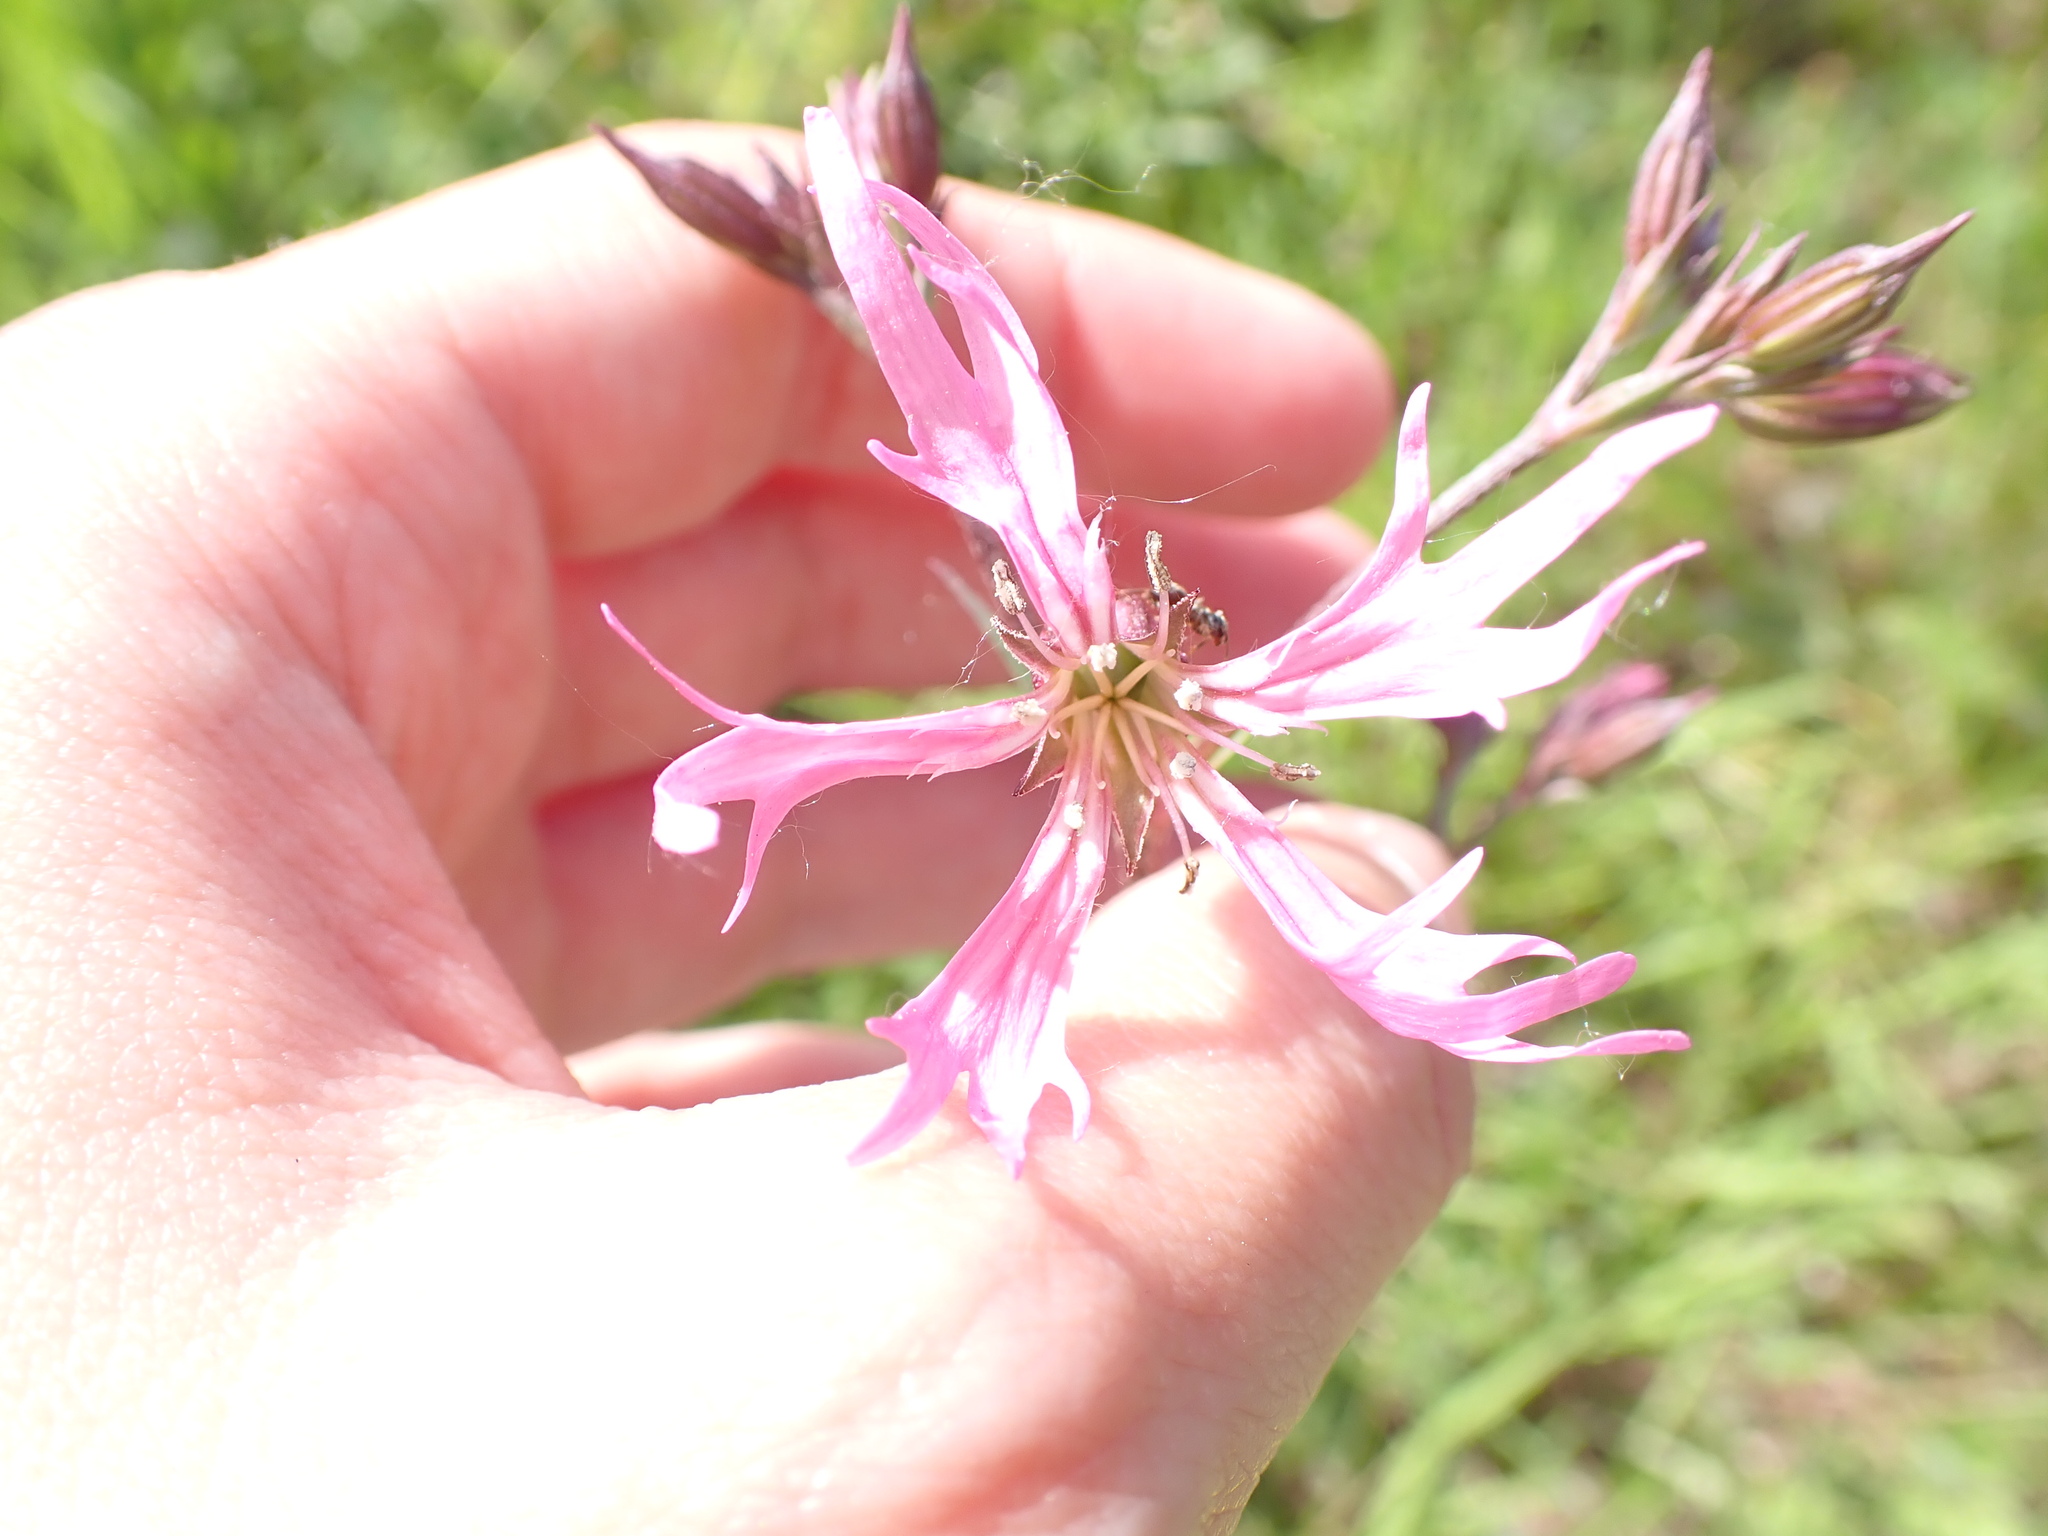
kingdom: Plantae
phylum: Tracheophyta
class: Magnoliopsida
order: Caryophyllales
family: Caryophyllaceae
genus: Silene
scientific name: Silene flos-cuculi
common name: Ragged-robin
